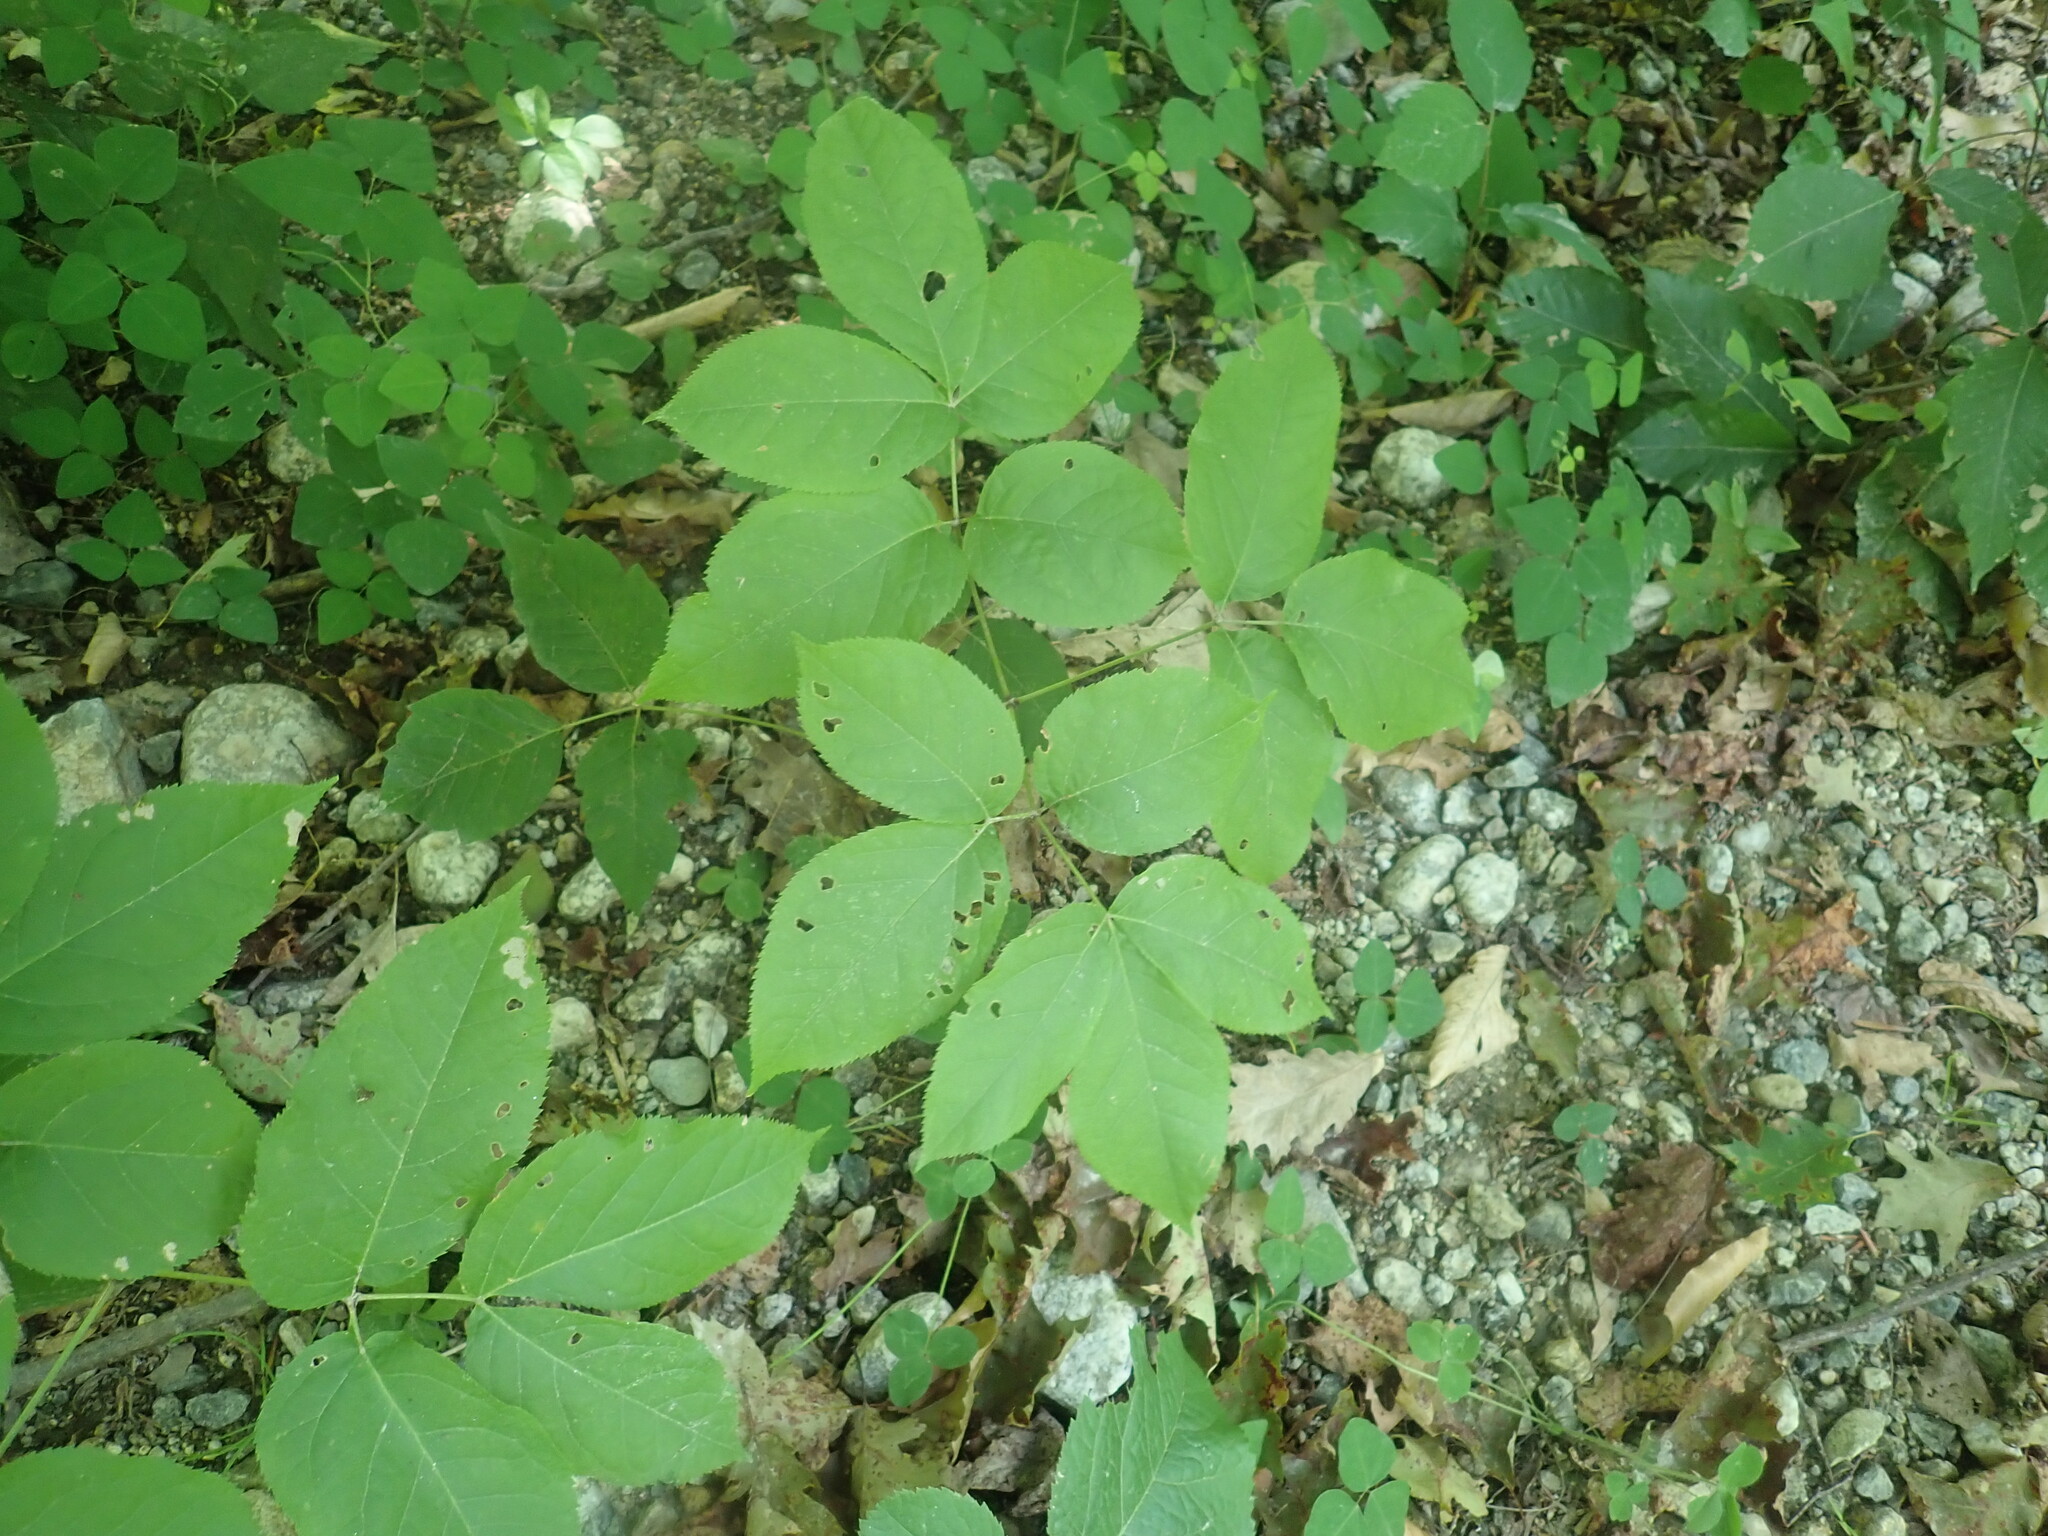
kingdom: Plantae
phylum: Tracheophyta
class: Magnoliopsida
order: Apiales
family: Araliaceae
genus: Aralia
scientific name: Aralia nudicaulis
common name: Wild sarsaparilla
